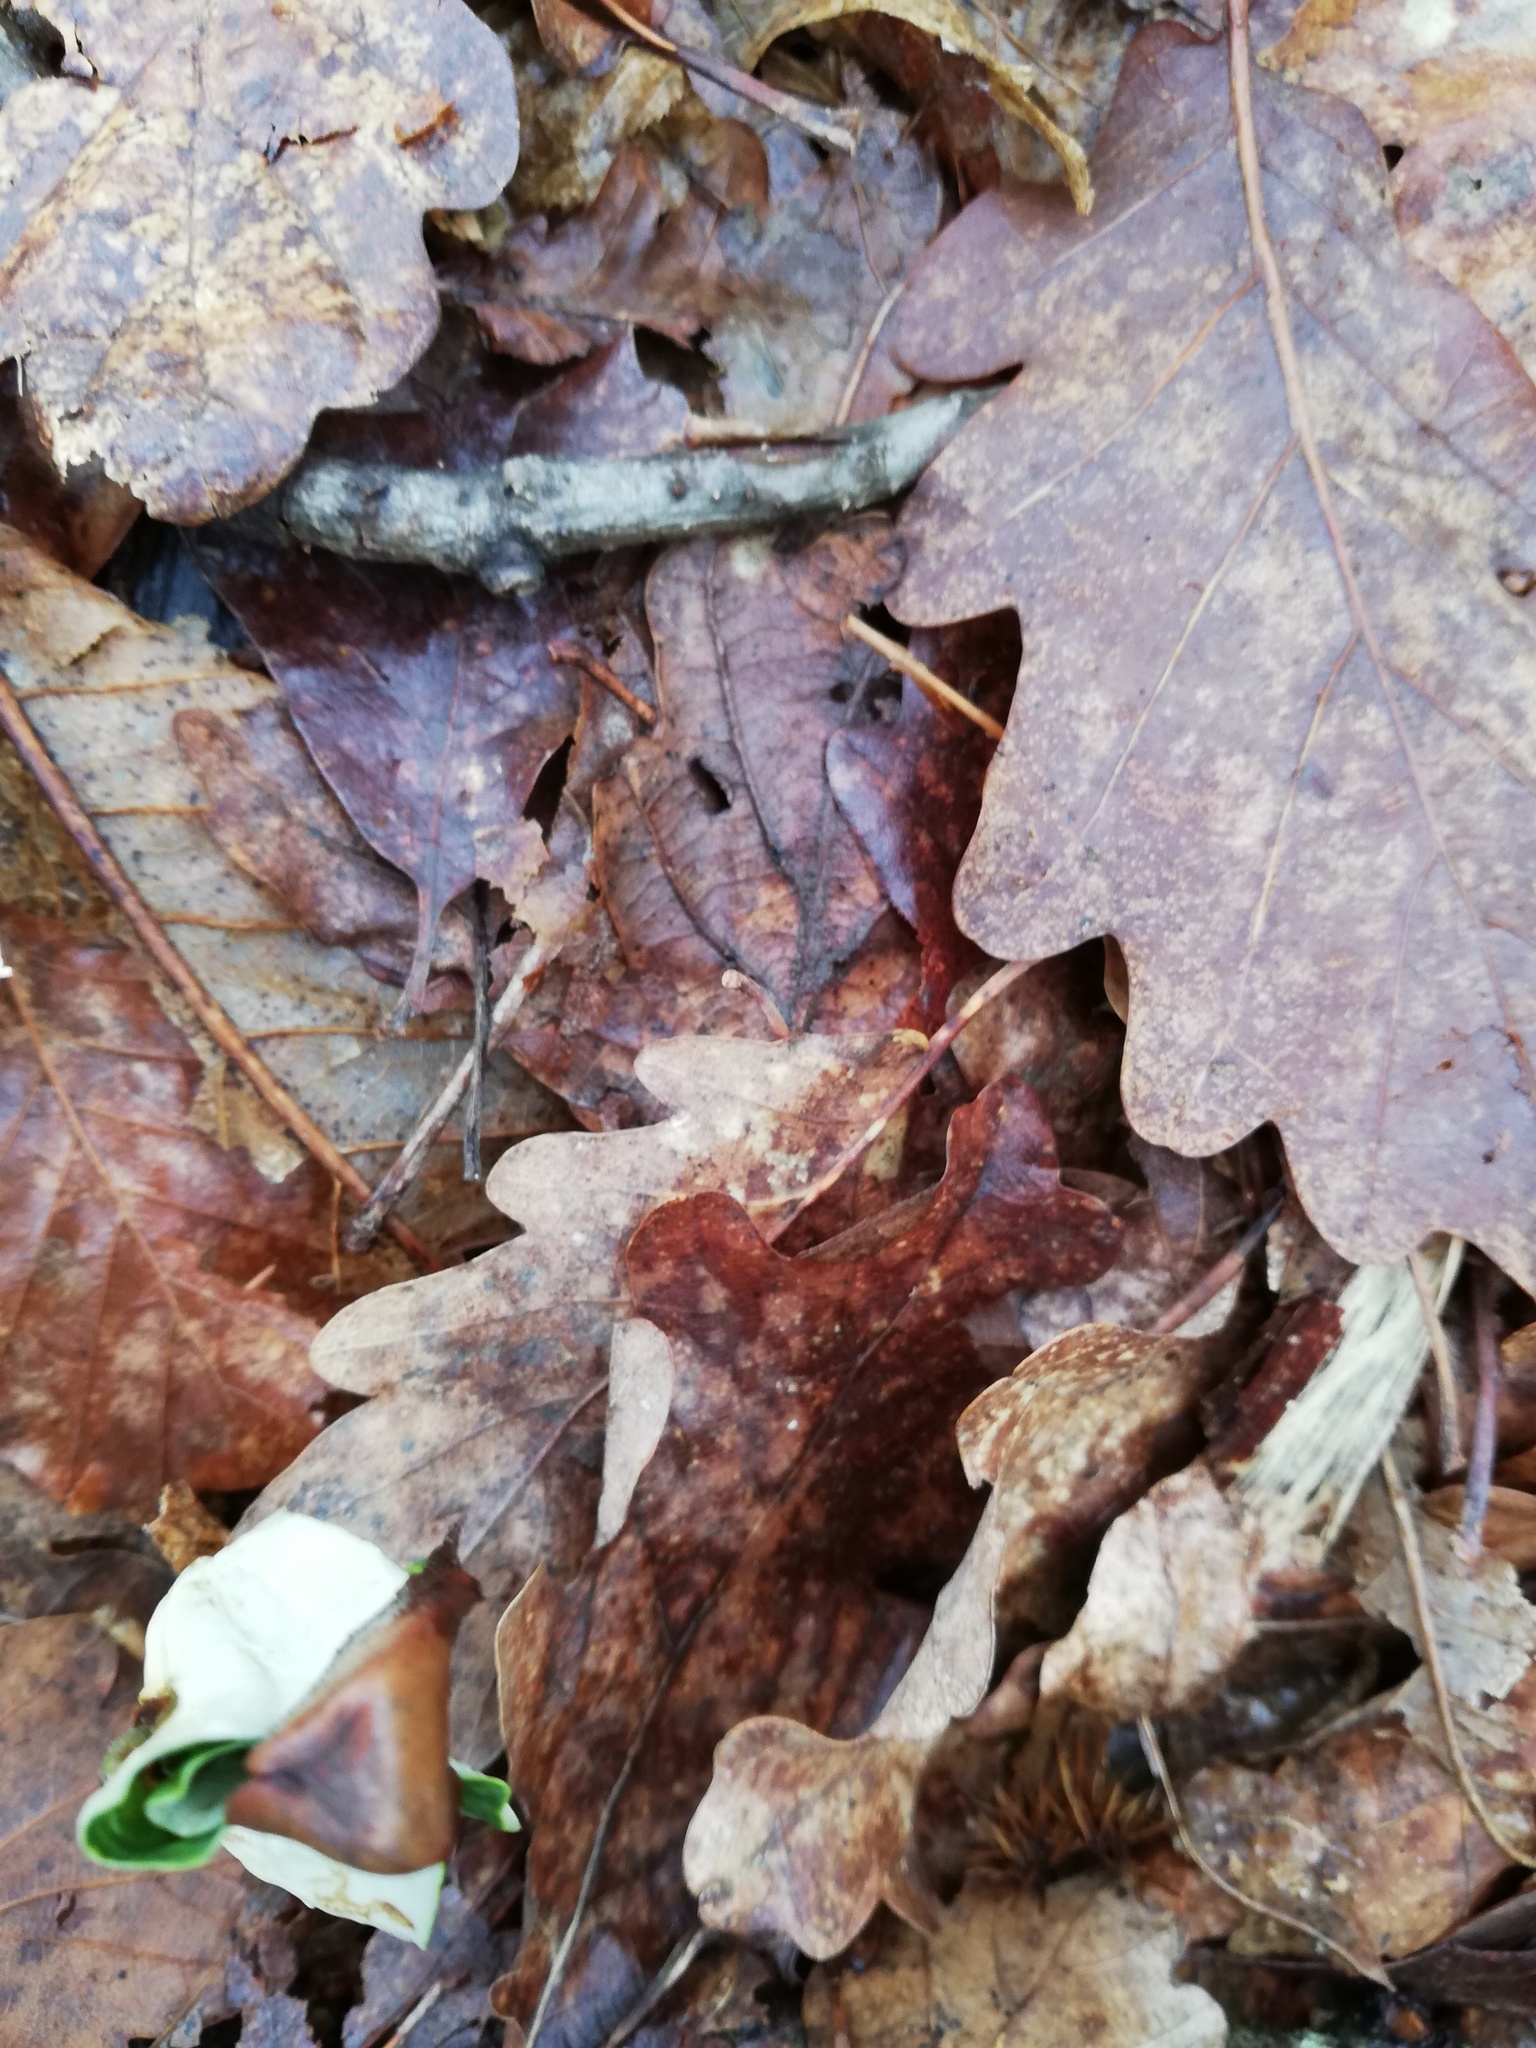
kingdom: Plantae
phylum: Tracheophyta
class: Magnoliopsida
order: Fagales
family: Fagaceae
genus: Fagus
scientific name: Fagus sylvatica
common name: Beech
